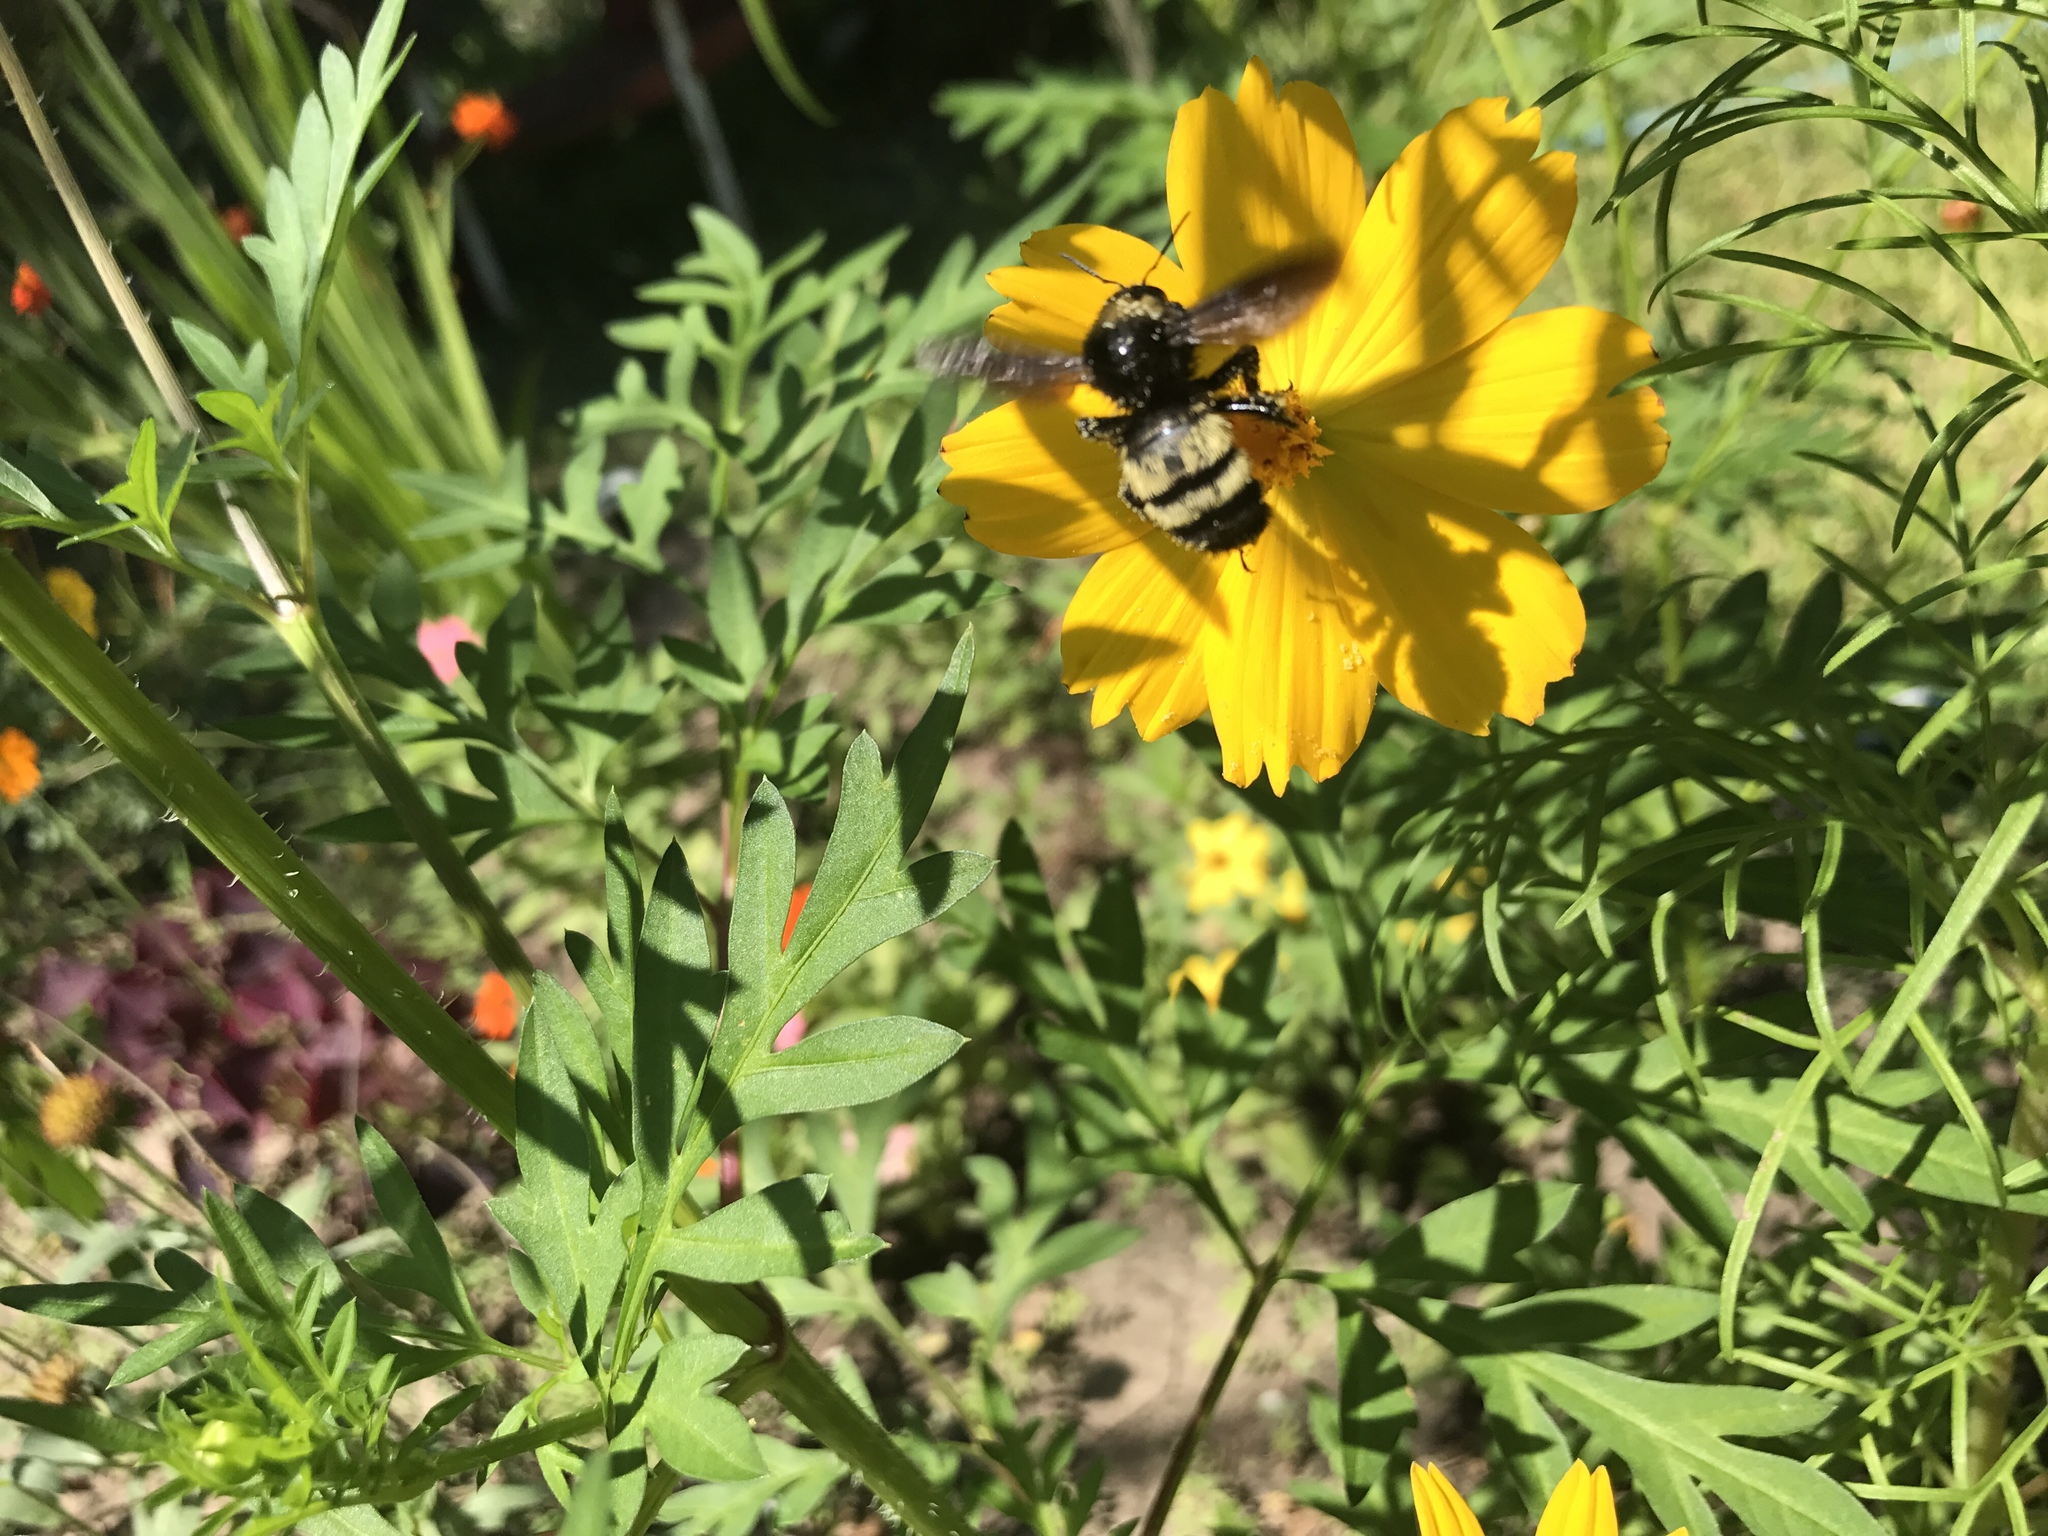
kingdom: Animalia
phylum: Arthropoda
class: Insecta
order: Hymenoptera
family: Apidae
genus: Bombus
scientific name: Bombus pensylvanicus
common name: Bumble bee
